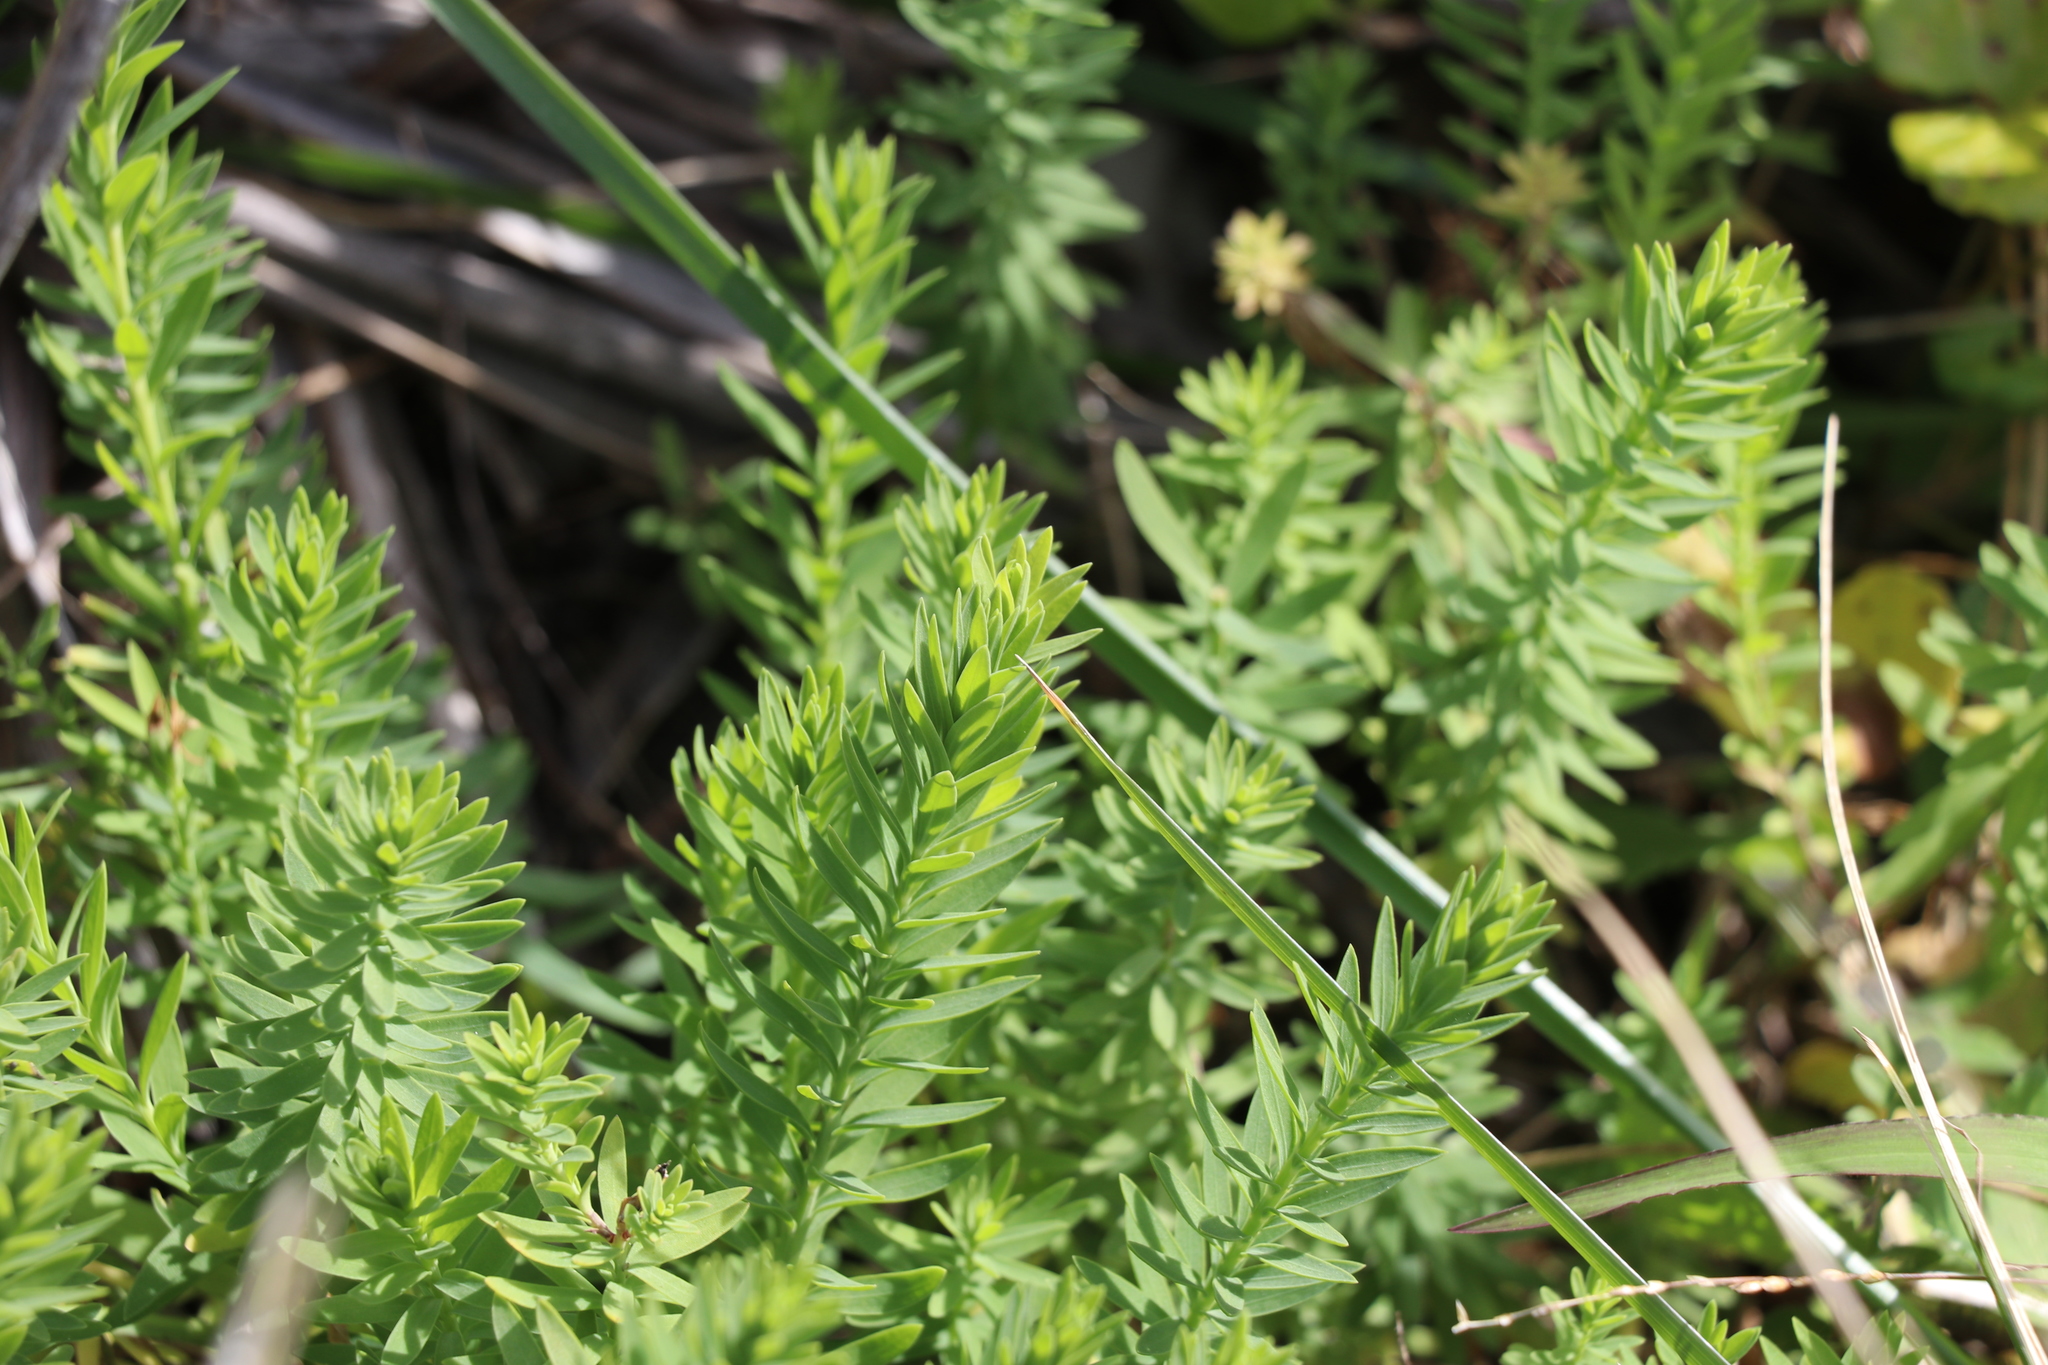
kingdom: Plantae
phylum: Tracheophyta
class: Magnoliopsida
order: Malpighiales
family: Linaceae
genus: Linum
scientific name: Linum monogynum
